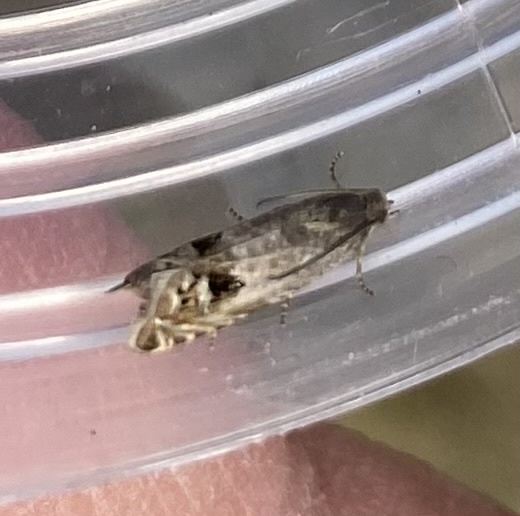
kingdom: Animalia
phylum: Arthropoda
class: Insecta
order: Lepidoptera
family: Tortricidae
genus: Cydia
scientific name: Cydia ulicetana
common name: Grey gorse piercer
